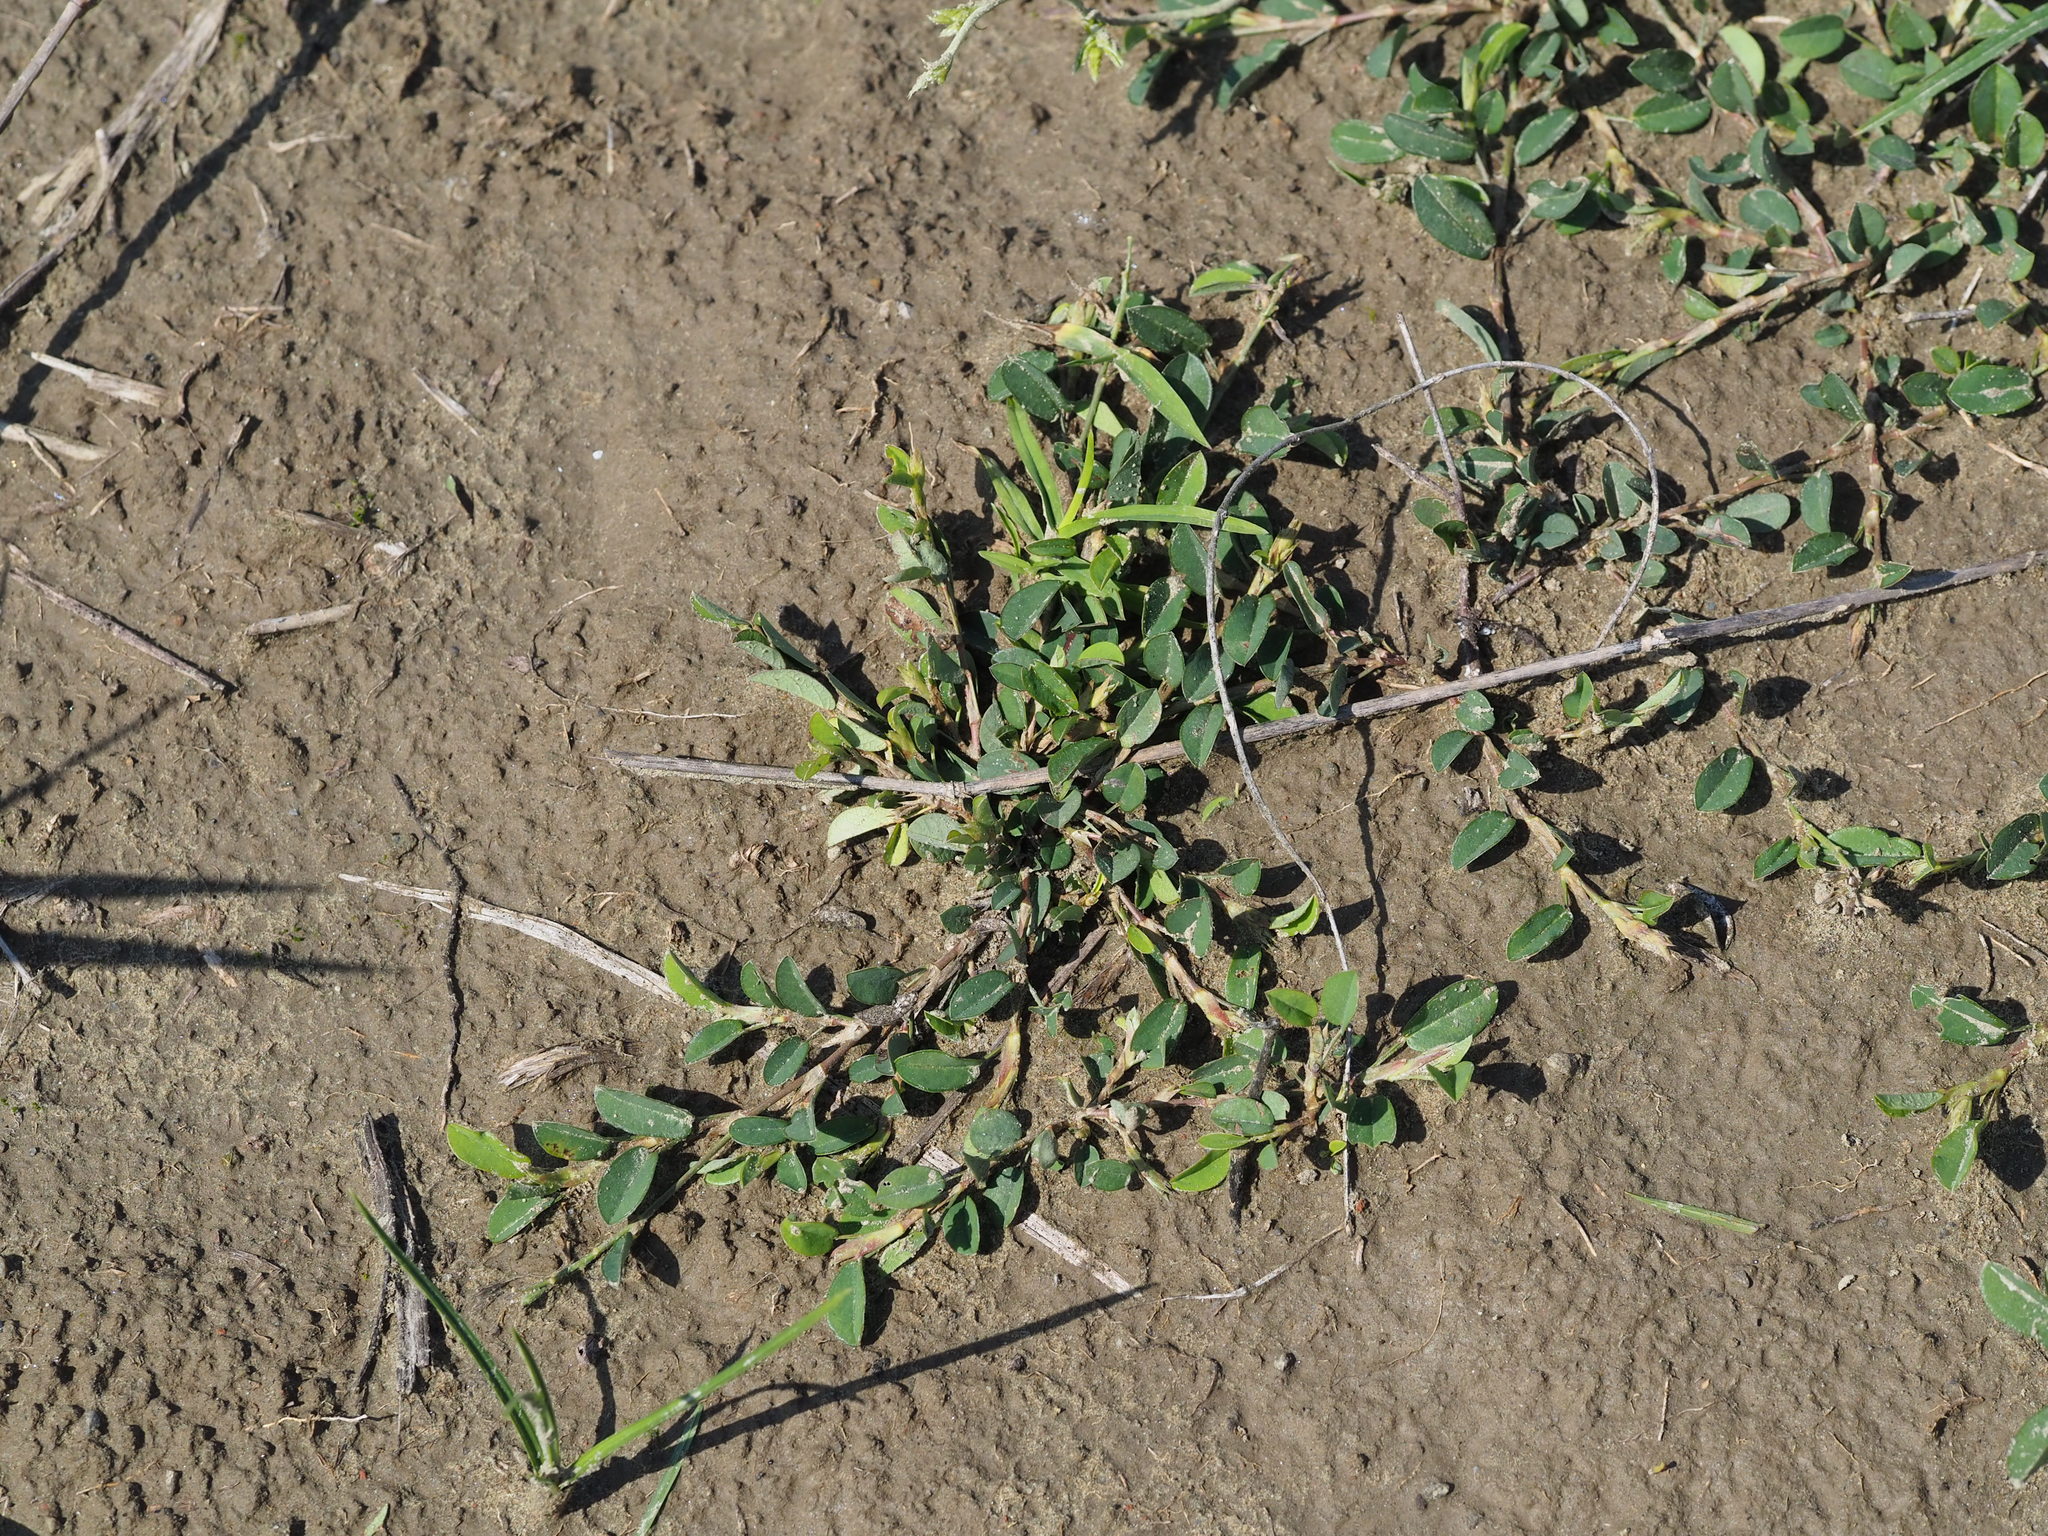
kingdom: Plantae
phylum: Tracheophyta
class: Magnoliopsida
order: Fabales
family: Fabaceae
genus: Alysicarpus
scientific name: Alysicarpus vaginalis
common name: White moneywort
